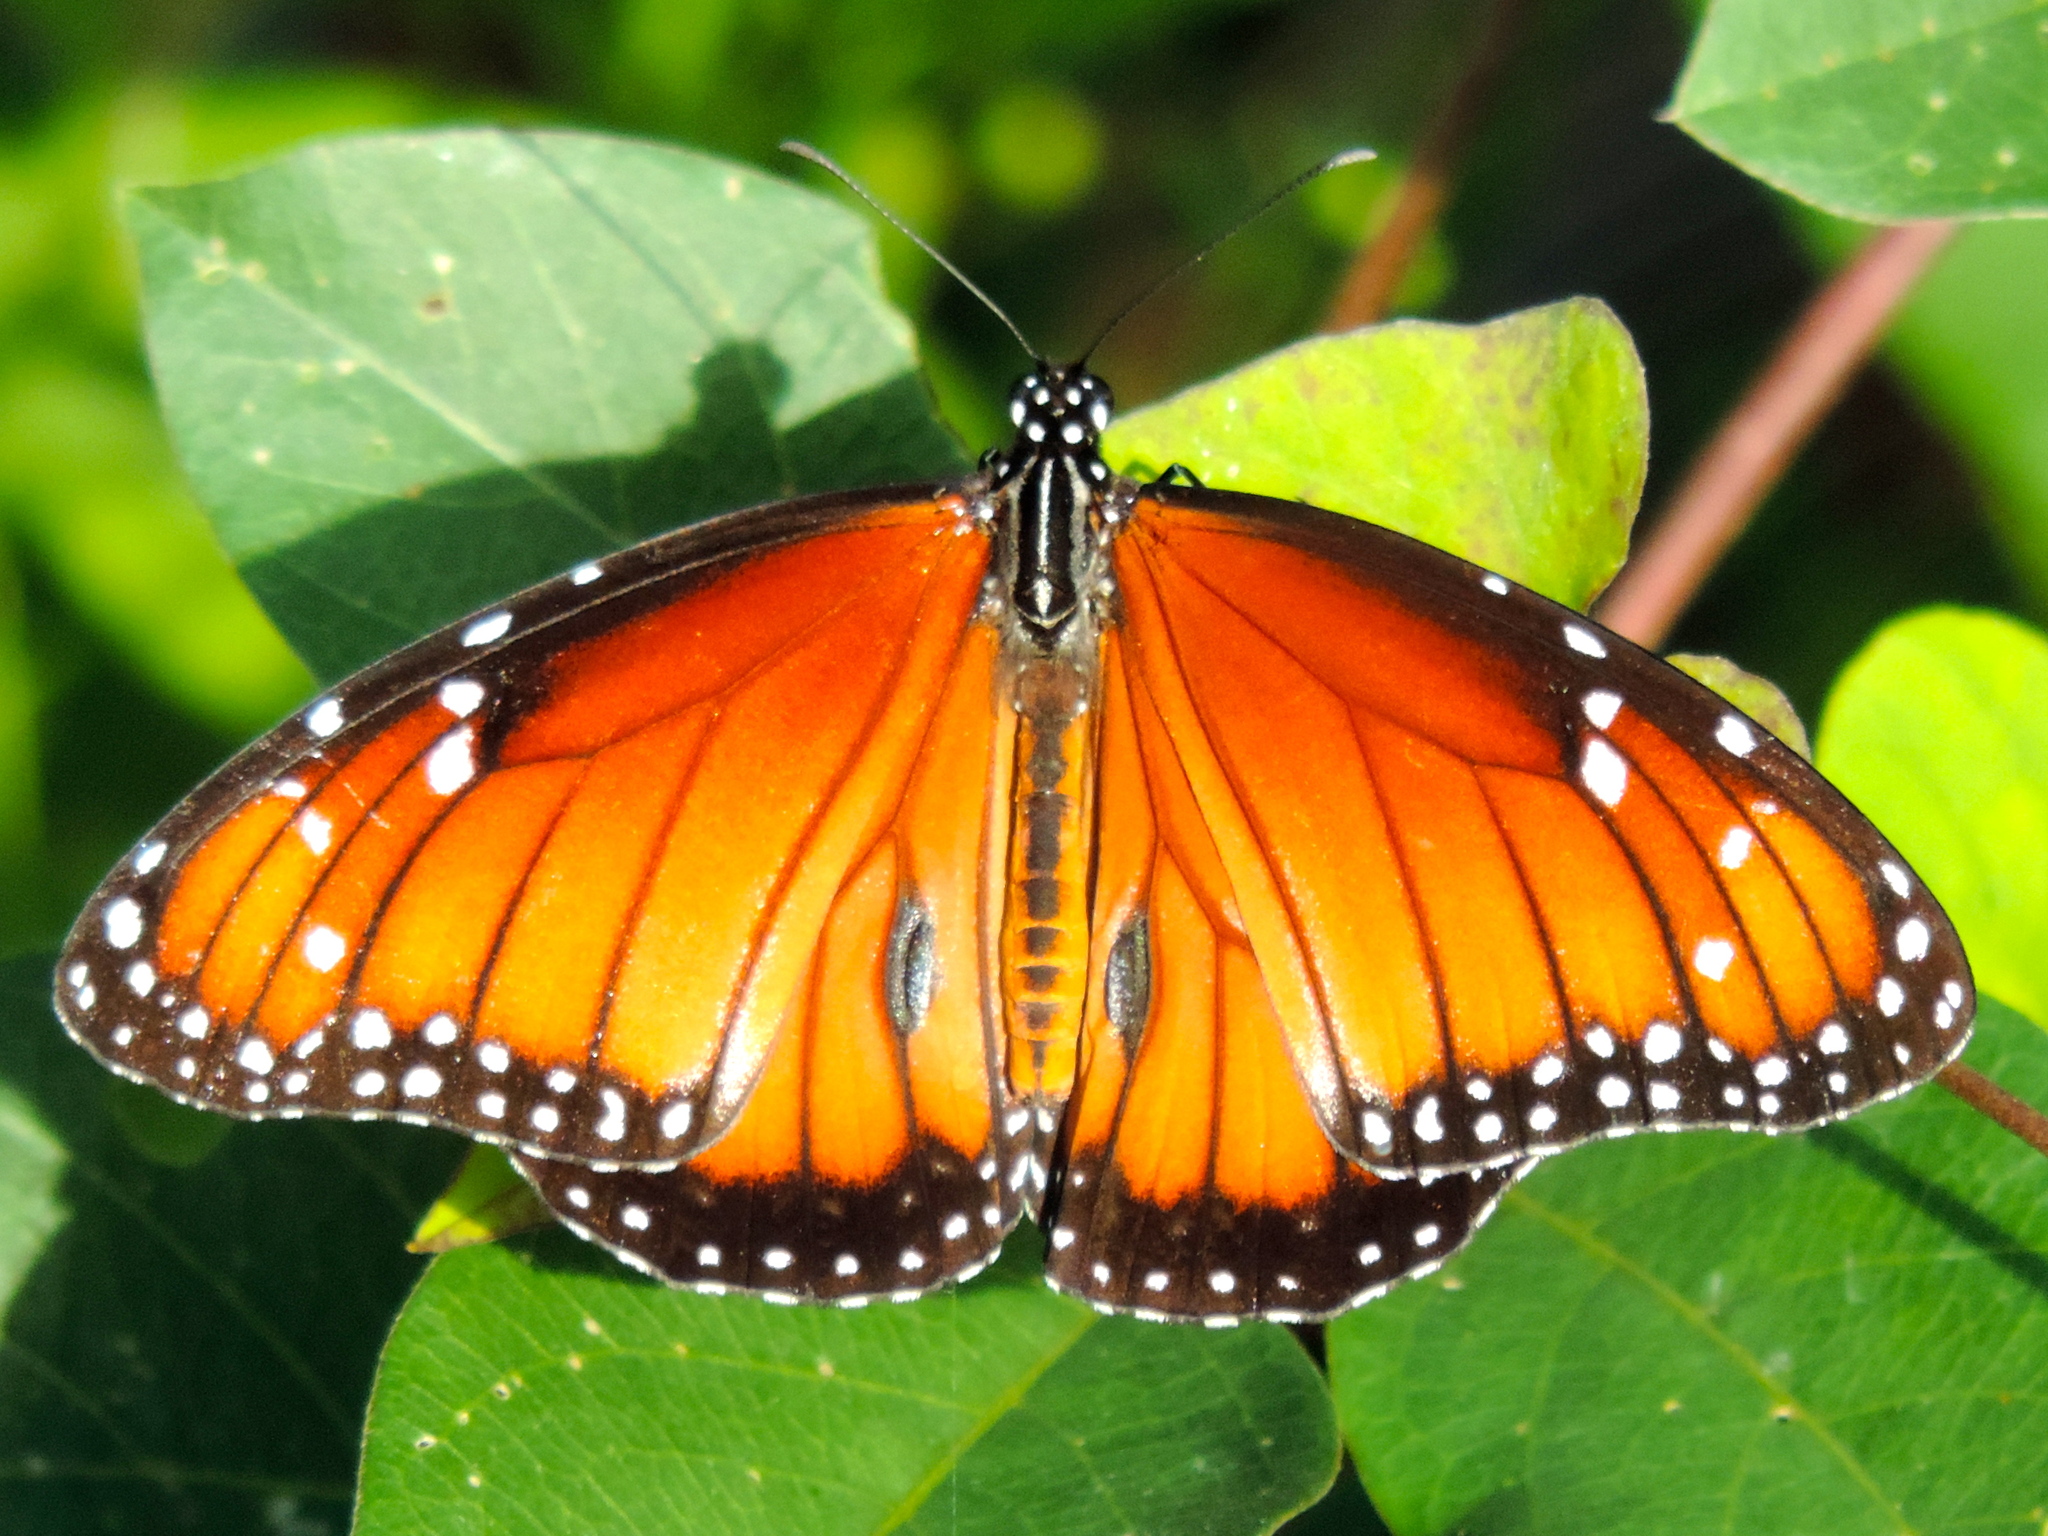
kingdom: Animalia
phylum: Arthropoda
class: Insecta
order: Lepidoptera
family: Nymphalidae
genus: Danaus
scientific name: Danaus eresimus
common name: Soldier
